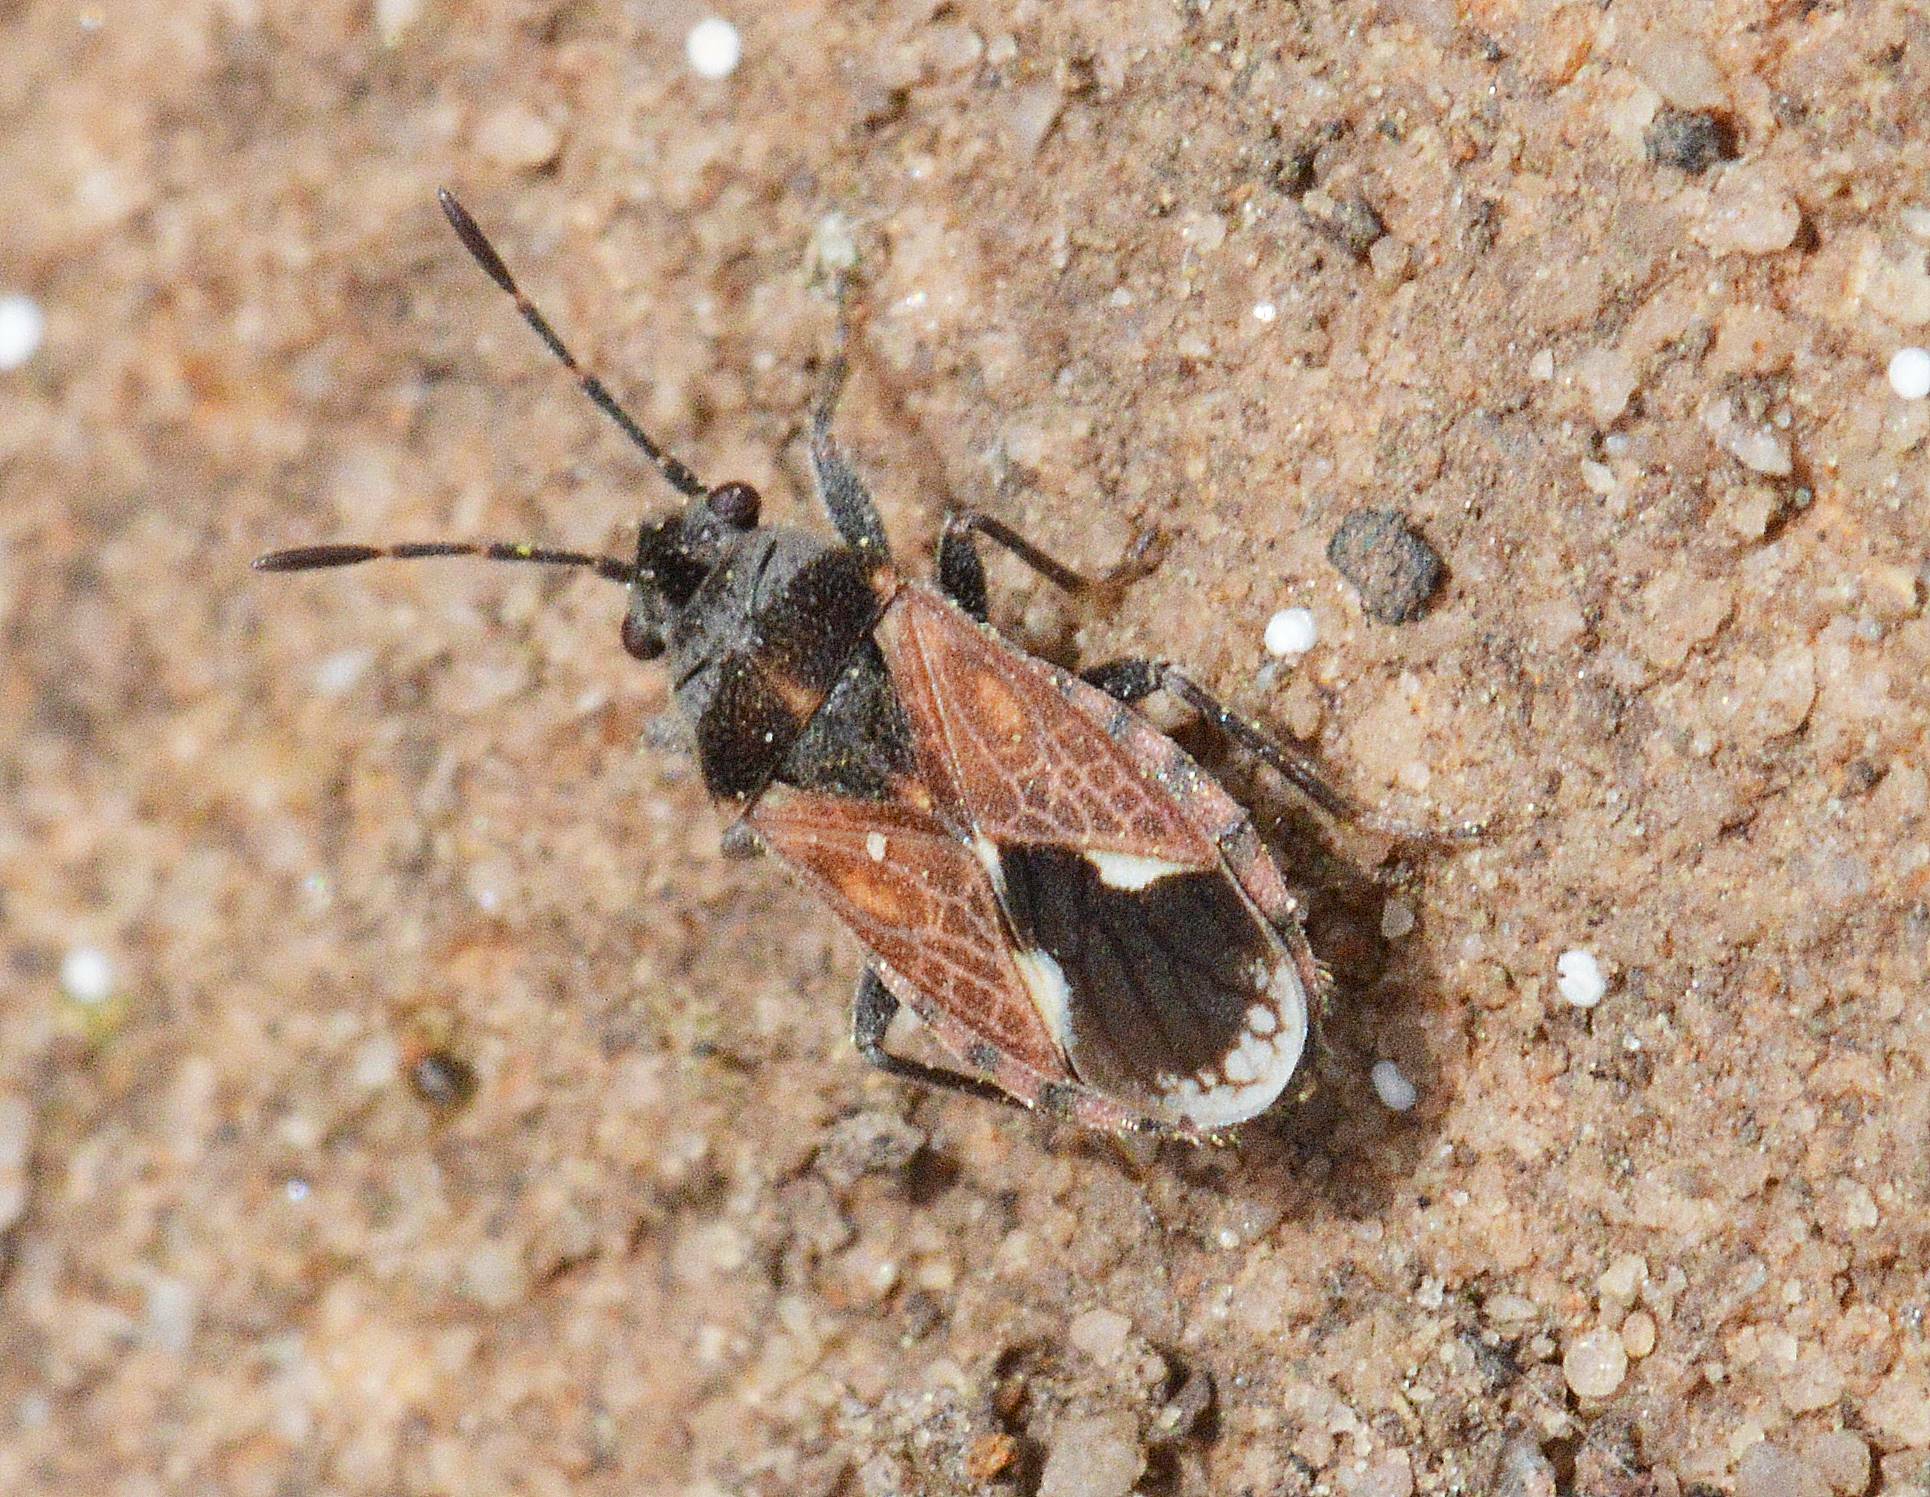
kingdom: Animalia
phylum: Arthropoda
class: Insecta
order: Hemiptera
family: Lygaeidae
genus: Lygaeosoma
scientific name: Lygaeosoma sardeum
